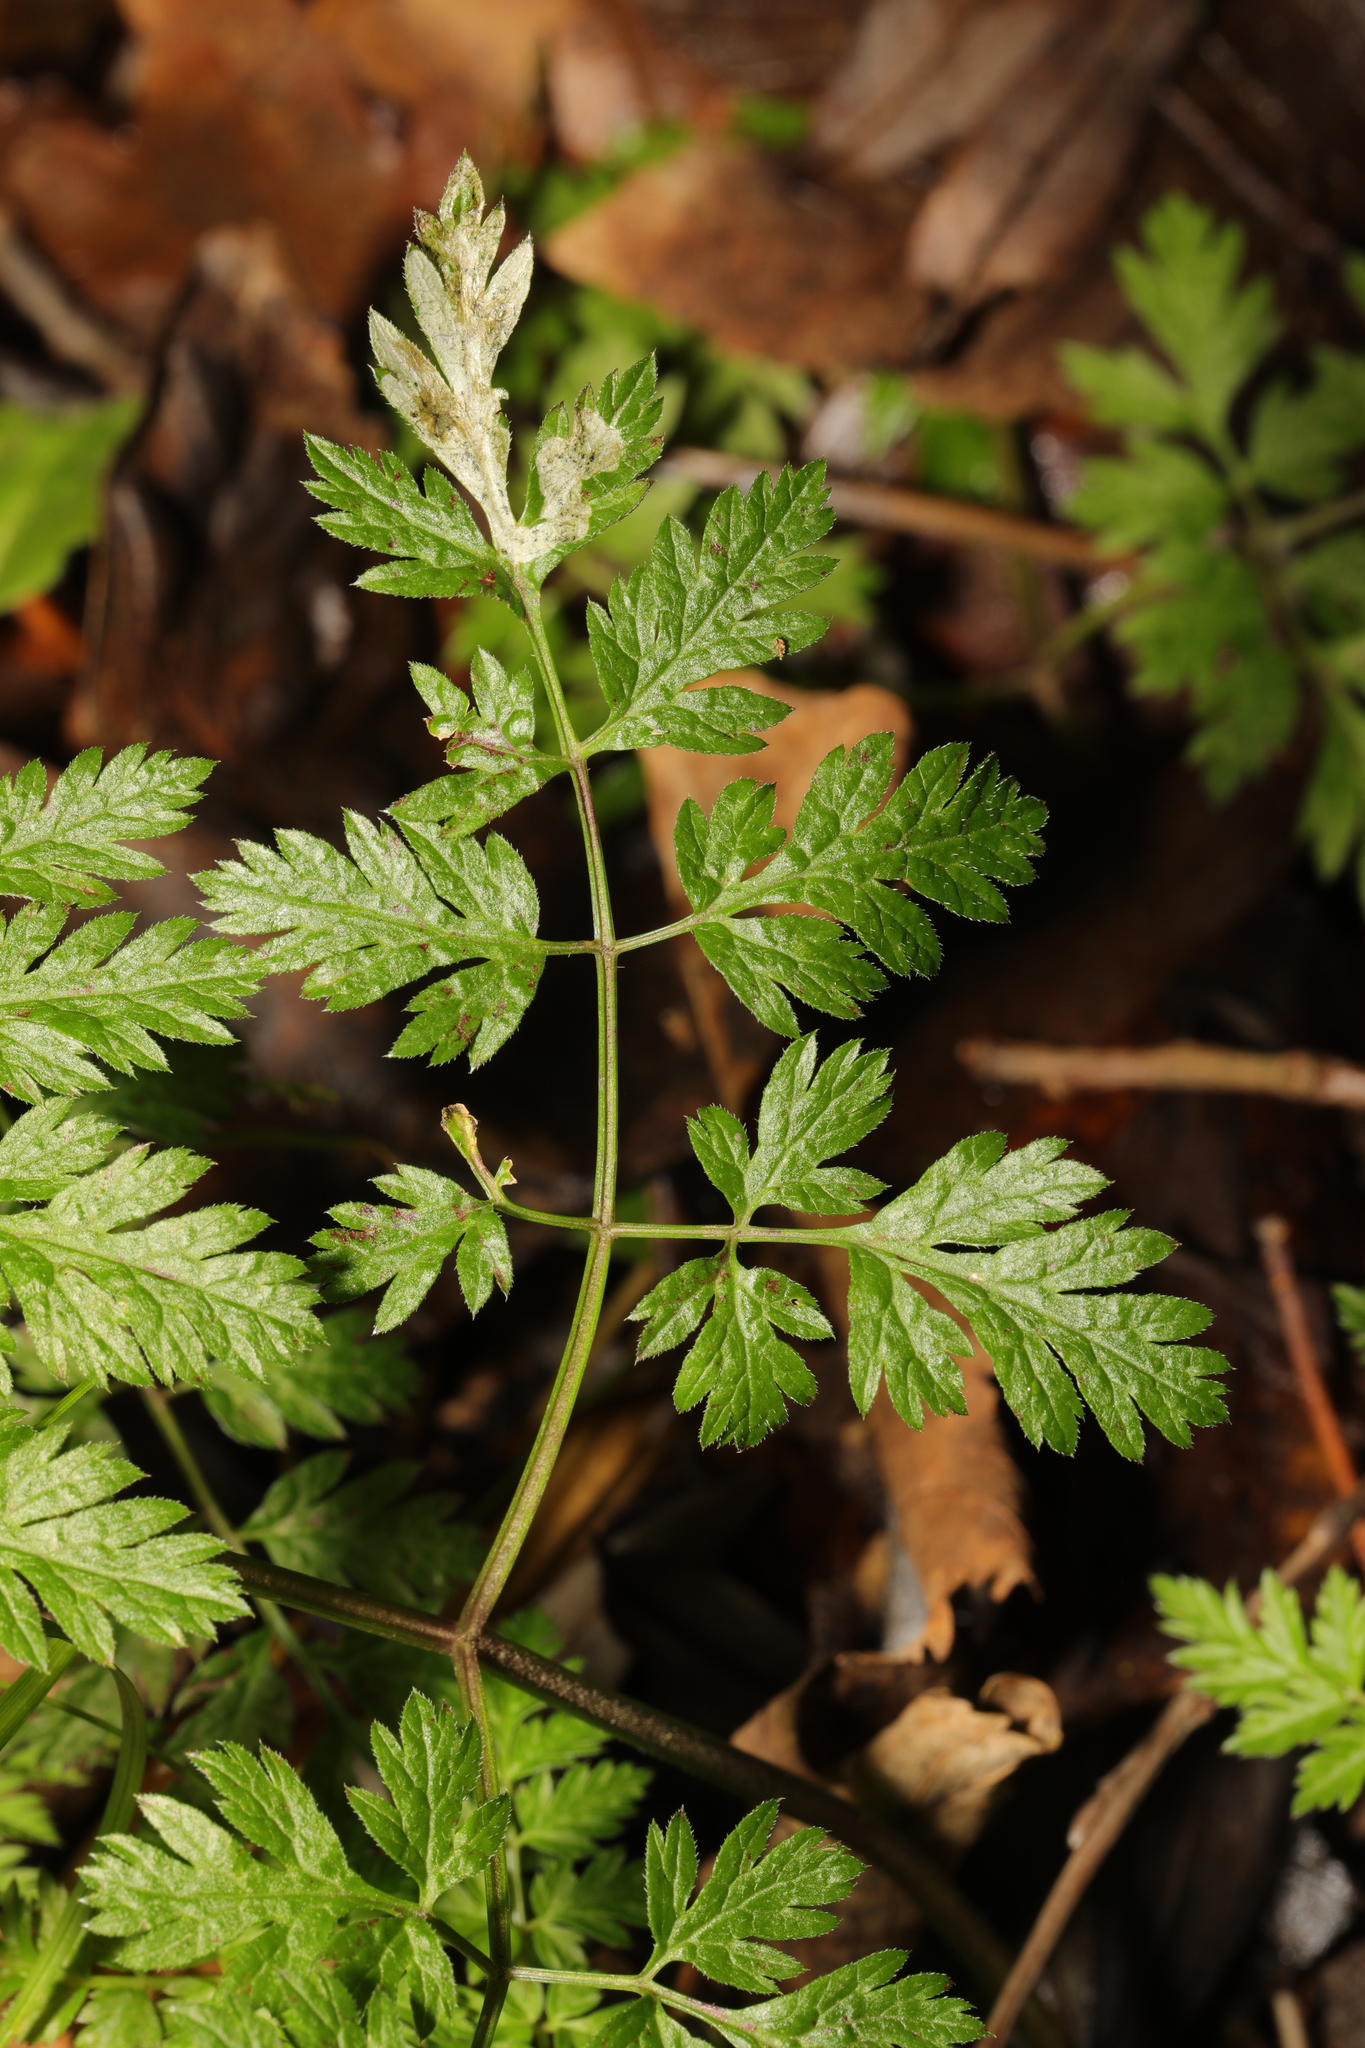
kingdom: Animalia
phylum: Arthropoda
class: Insecta
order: Diptera
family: Agromyzidae
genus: Phytomyza
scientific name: Phytomyza chaerophylli
